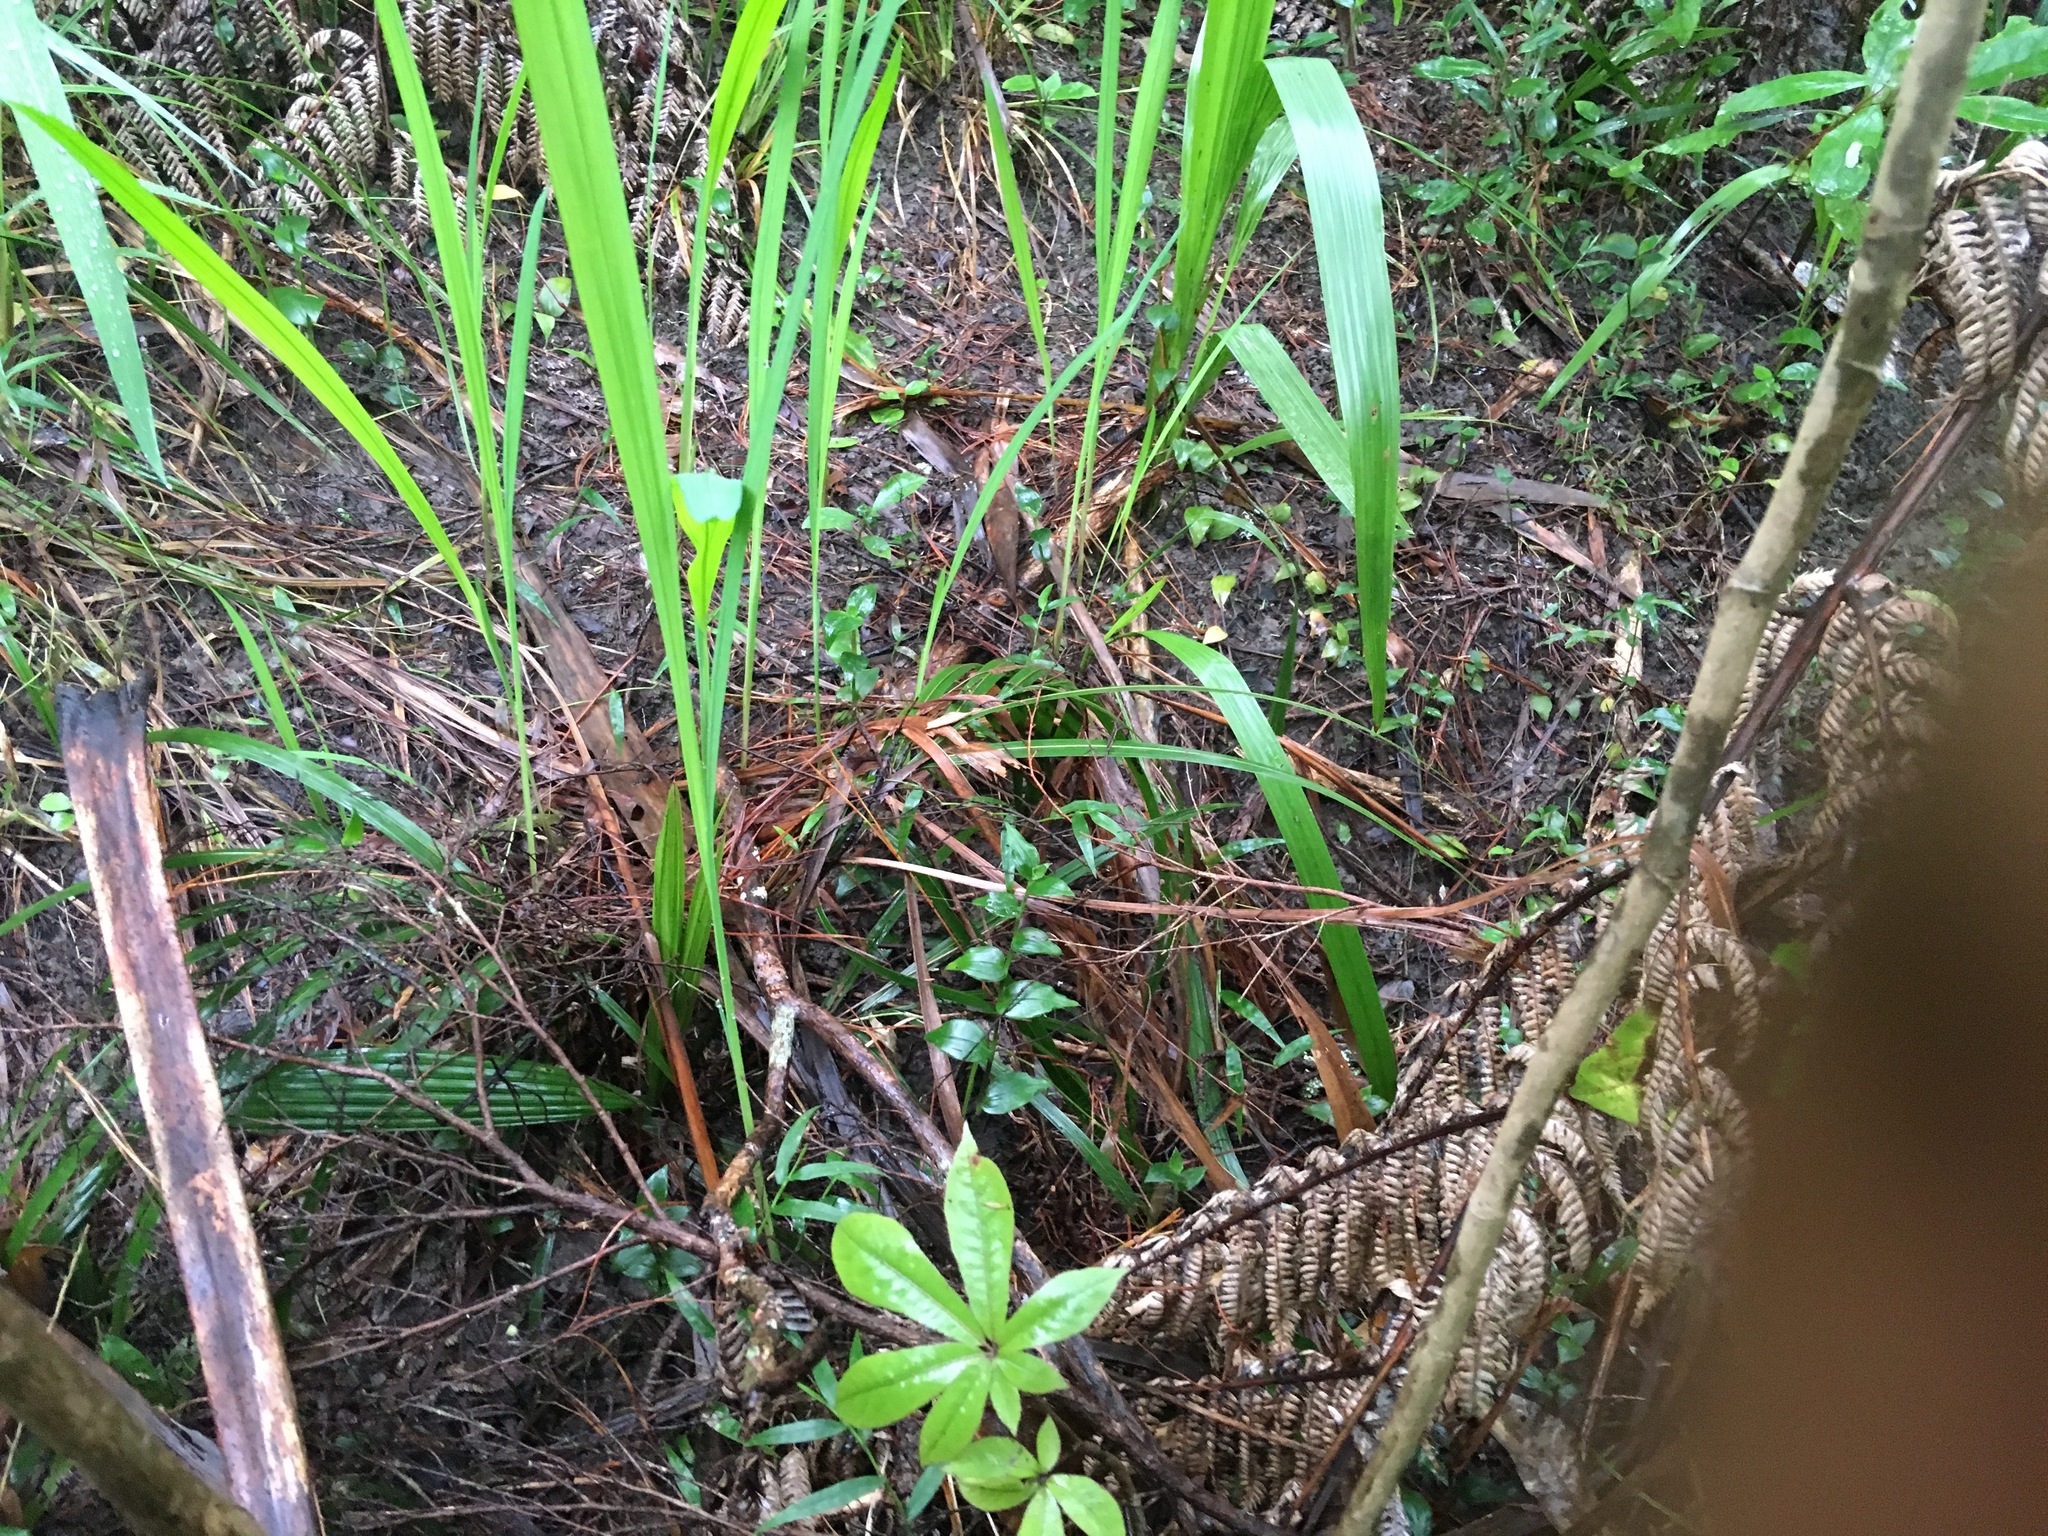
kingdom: Plantae
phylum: Tracheophyta
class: Liliopsida
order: Arecales
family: Arecaceae
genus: Phoenix
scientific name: Phoenix canariensis
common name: Canary island date palm
